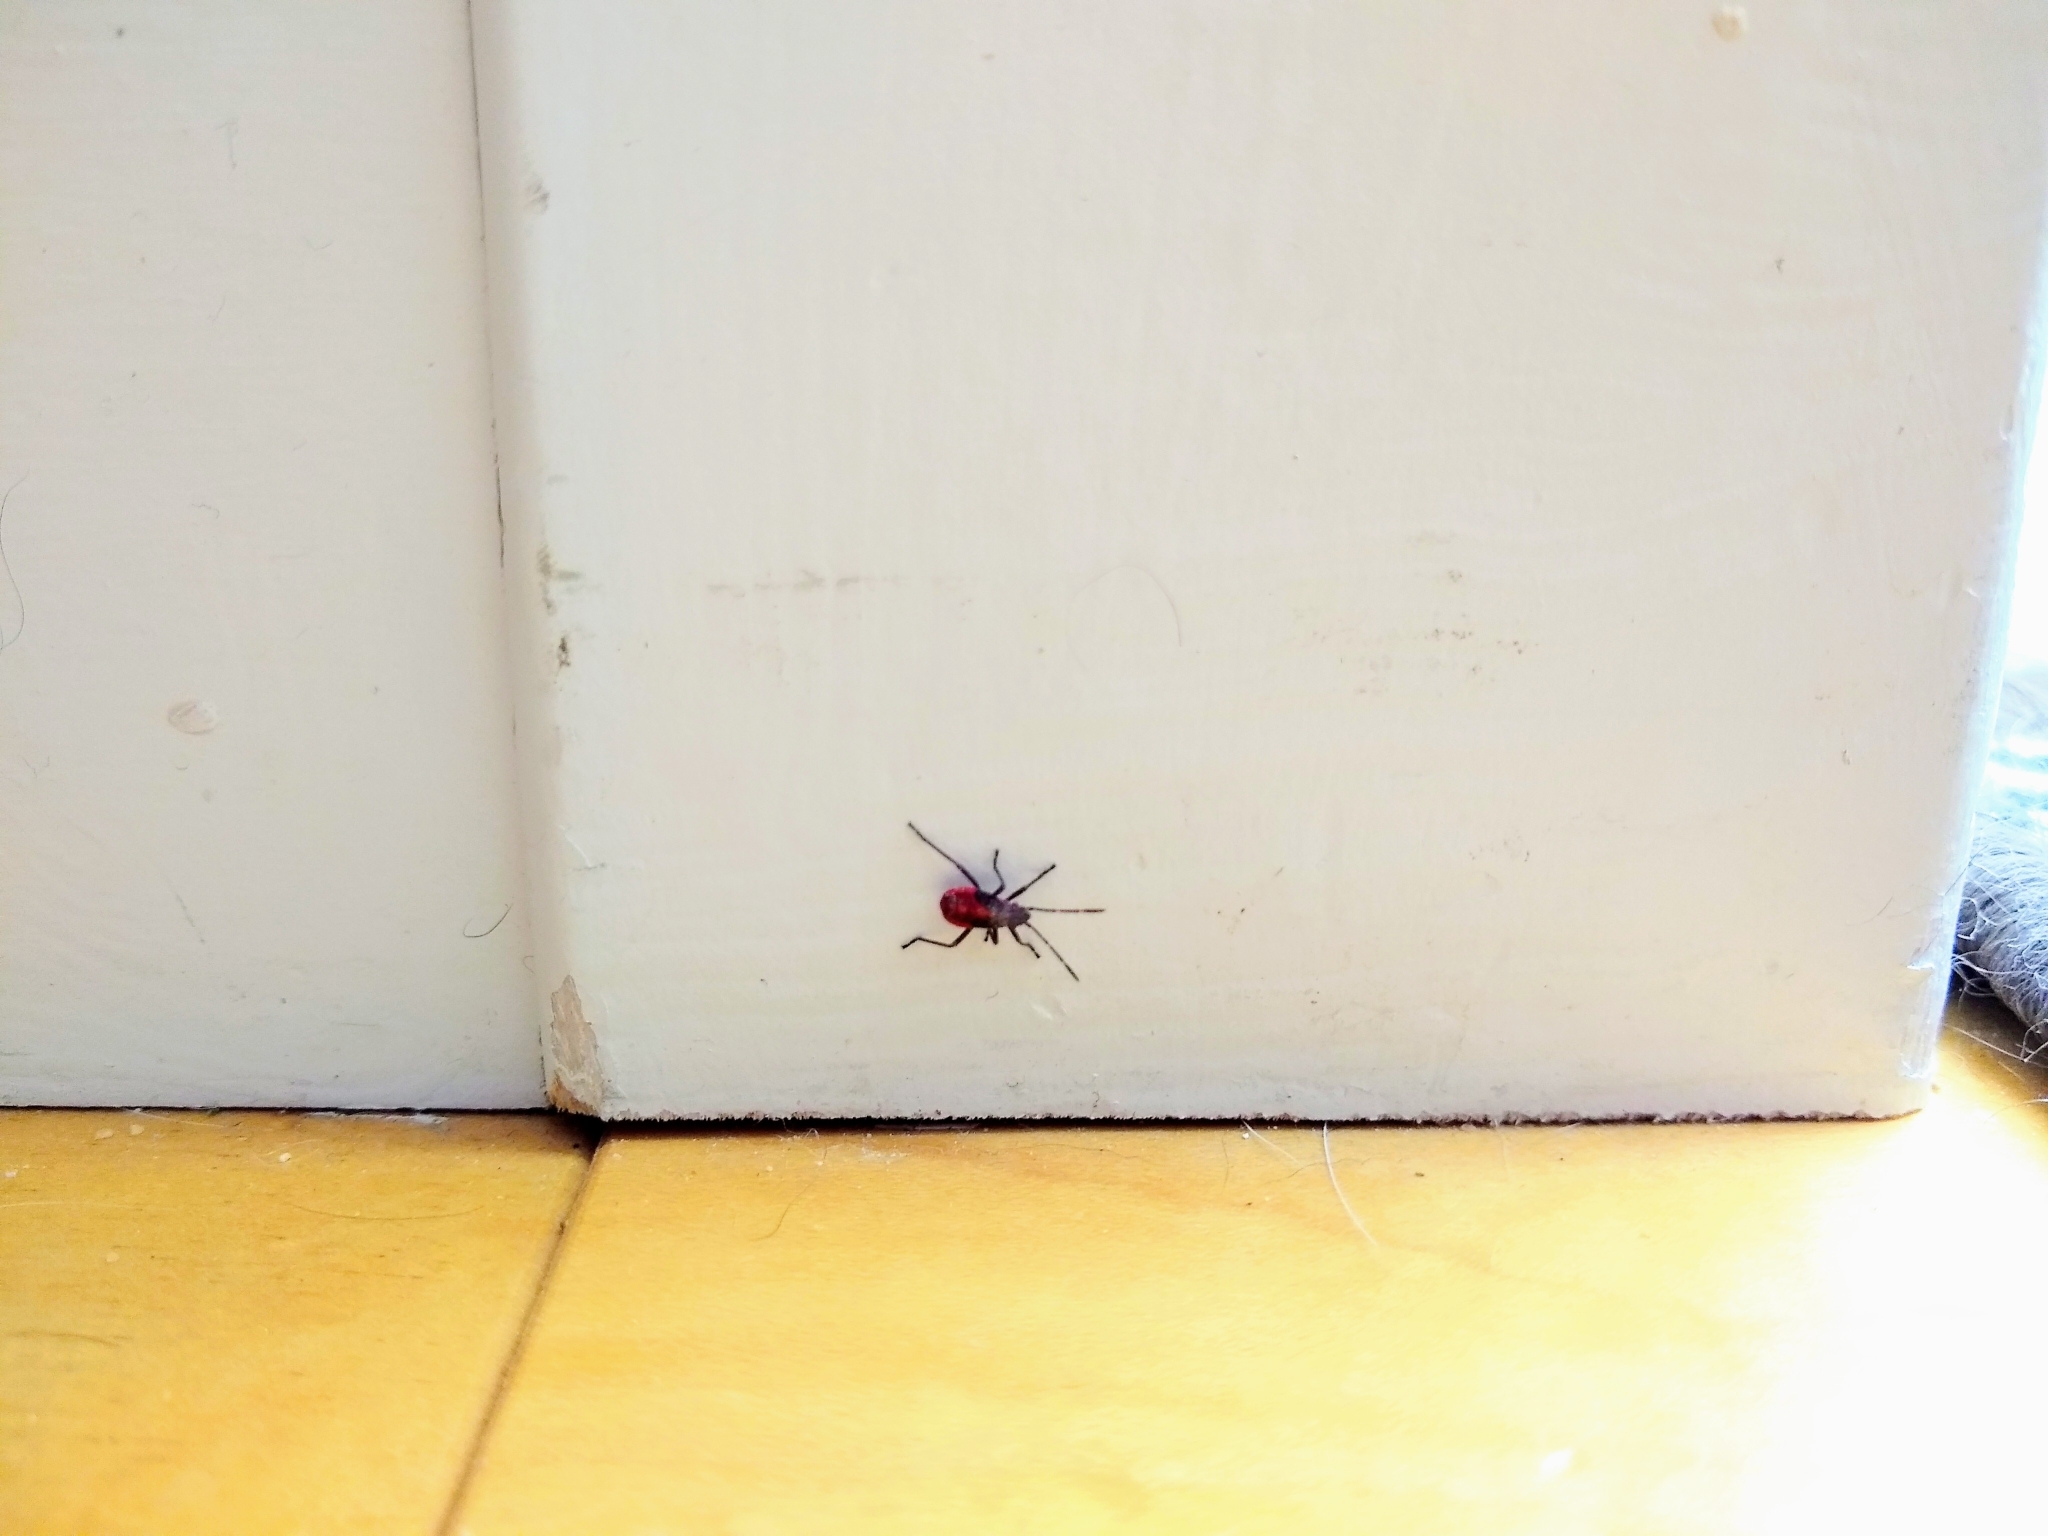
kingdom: Animalia
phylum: Arthropoda
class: Insecta
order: Hemiptera
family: Rhopalidae
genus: Boisea
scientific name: Boisea trivittata
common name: Boxelder bug
